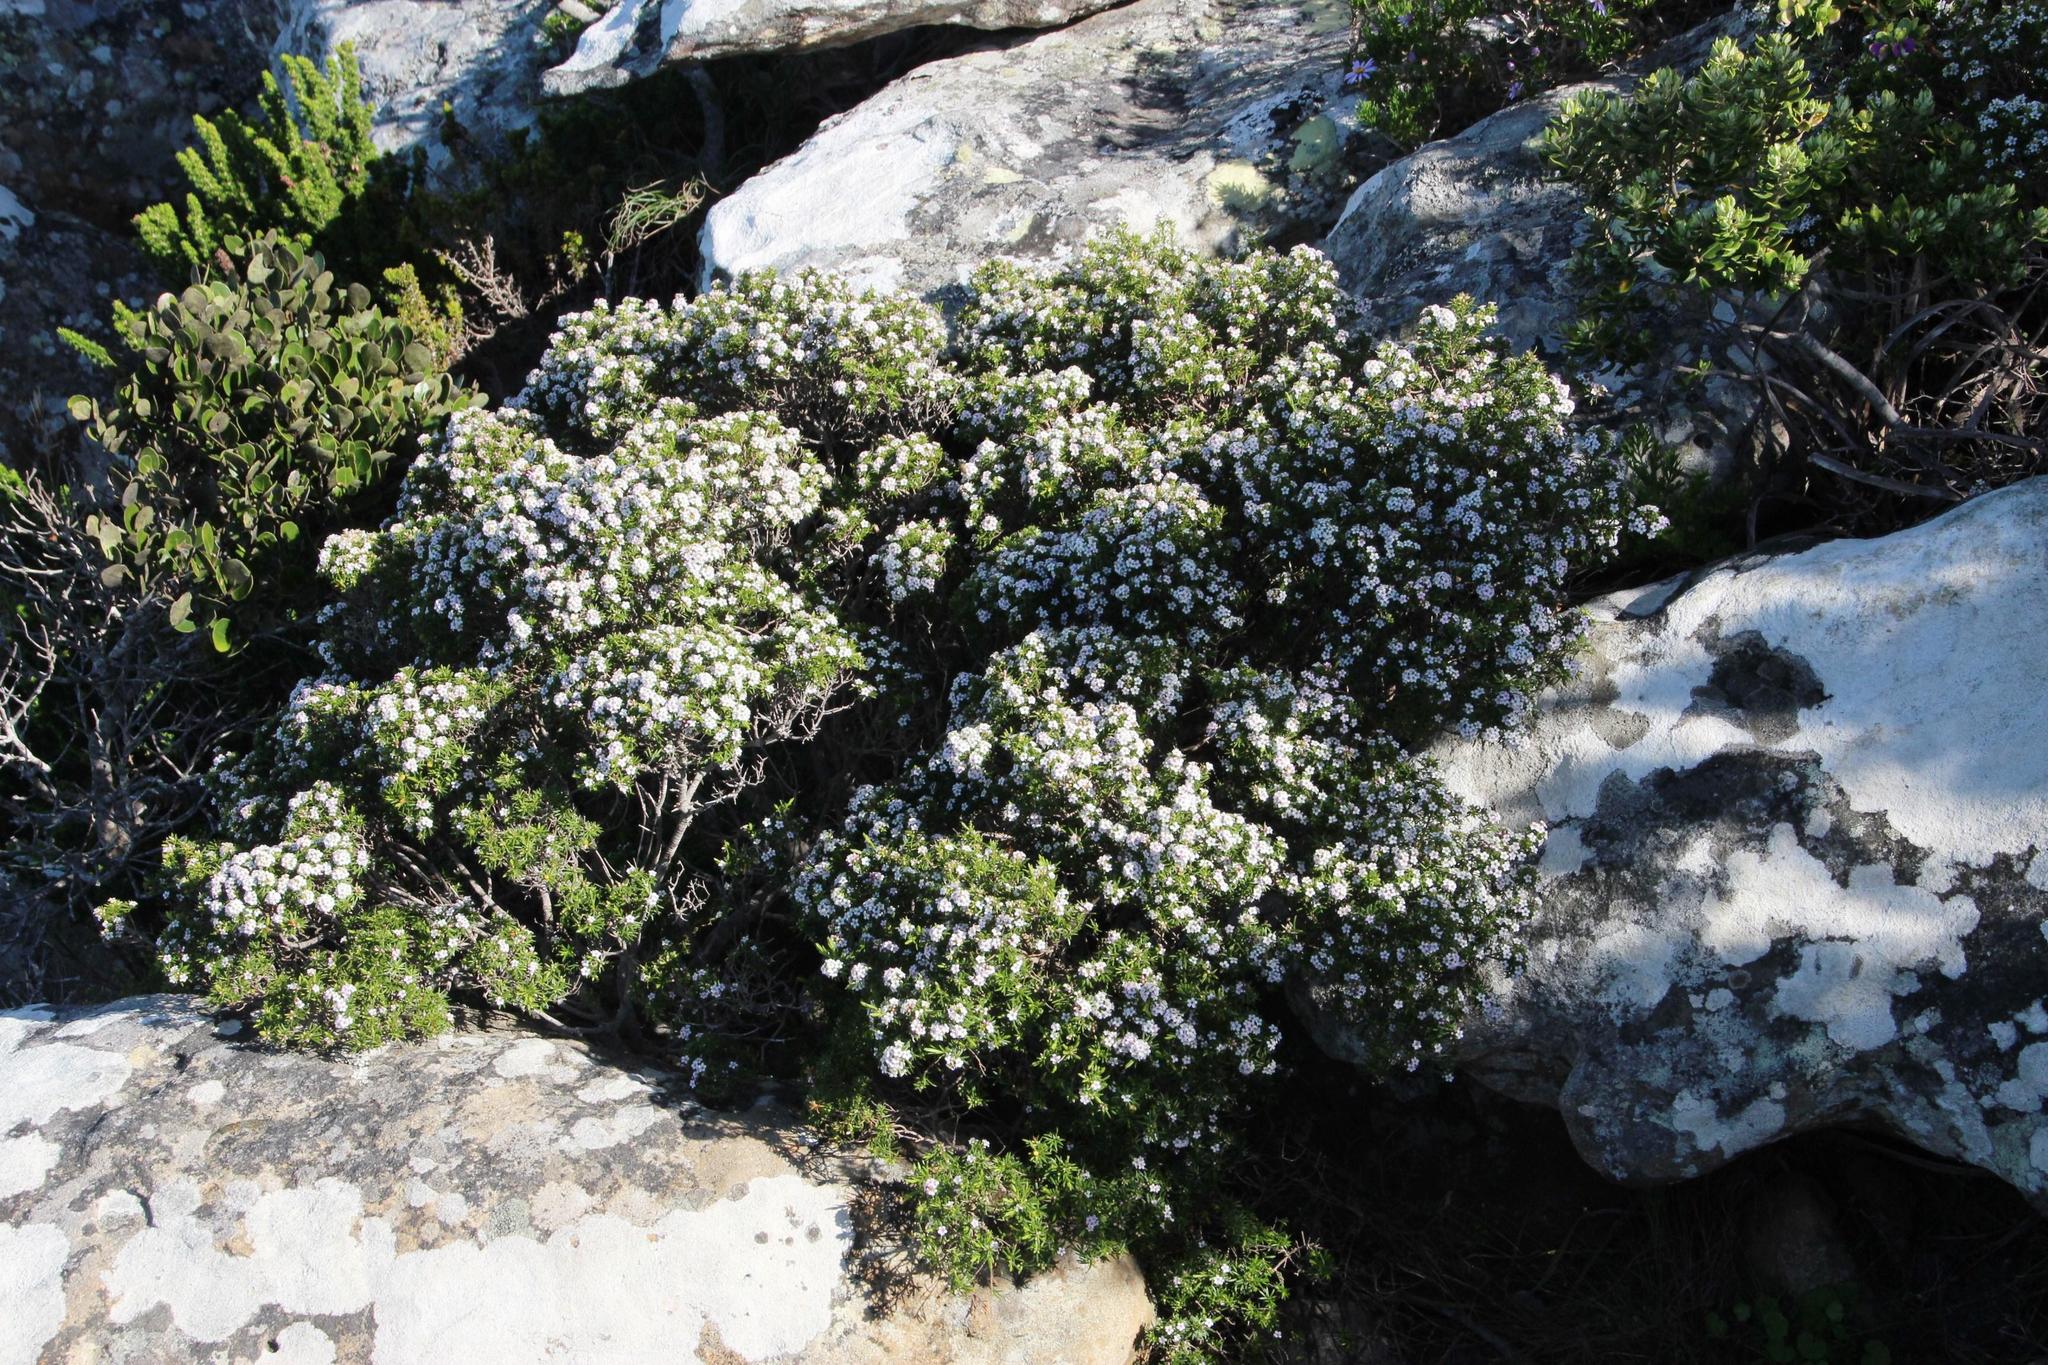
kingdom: Plantae
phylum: Tracheophyta
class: Magnoliopsida
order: Sapindales
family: Rutaceae
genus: Coleonema
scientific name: Coleonema album
